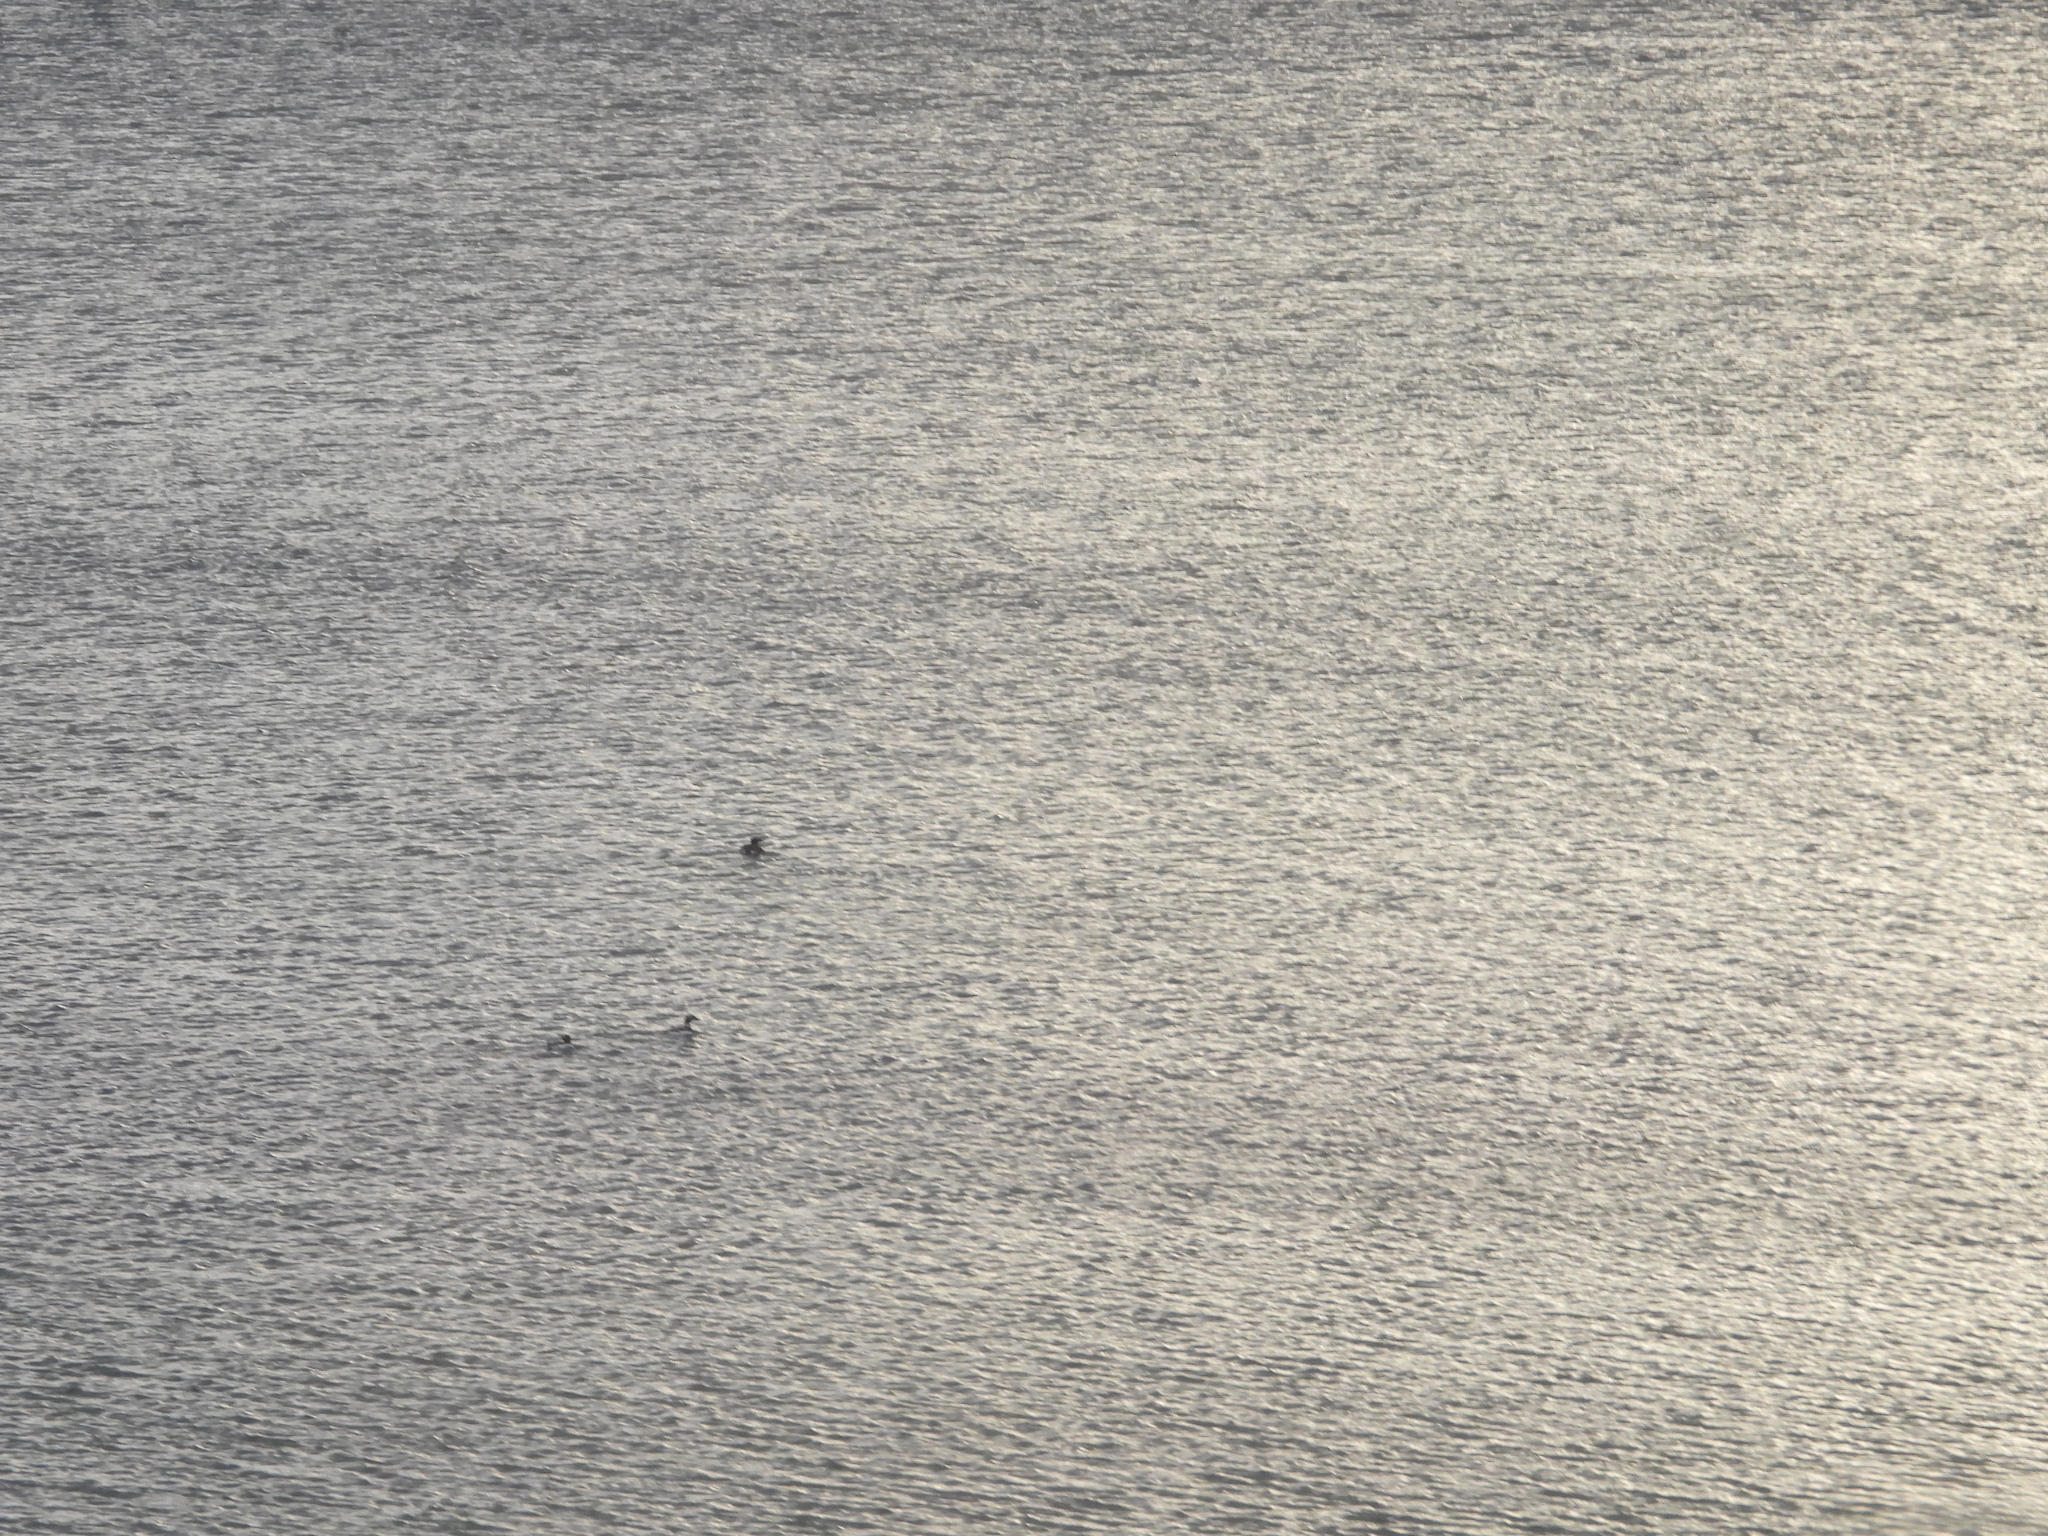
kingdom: Animalia
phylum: Chordata
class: Aves
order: Anseriformes
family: Anatidae
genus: Clangula
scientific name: Clangula hyemalis
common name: Long-tailed duck
